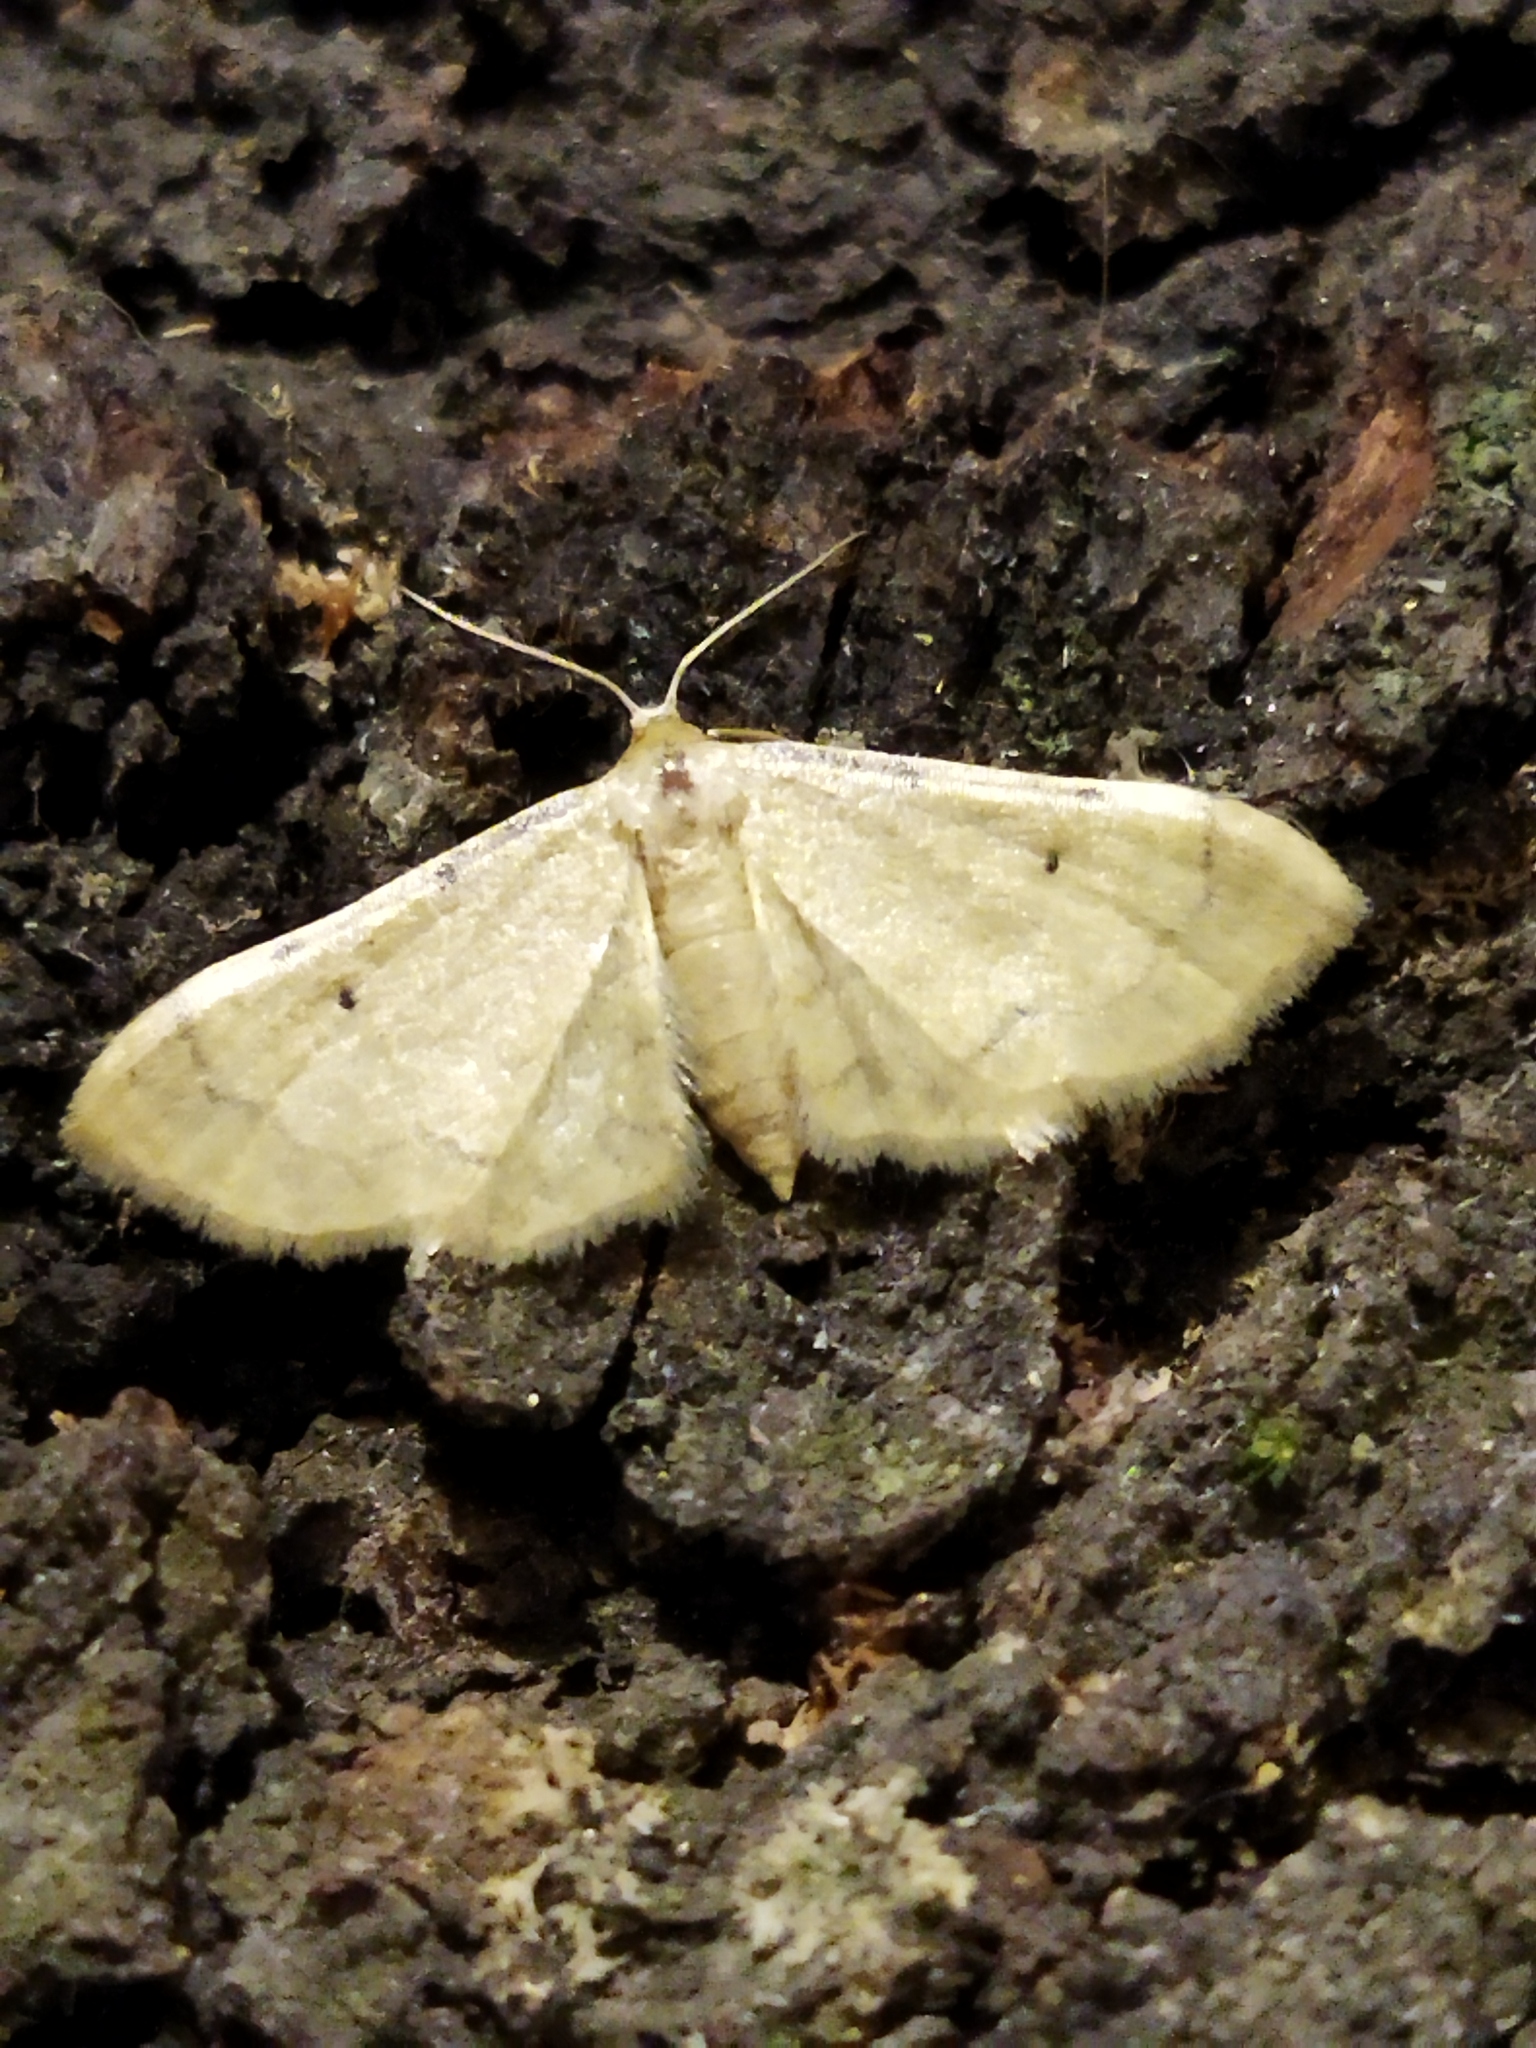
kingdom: Animalia
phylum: Arthropoda
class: Insecta
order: Lepidoptera
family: Geometridae
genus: Idaea
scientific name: Idaea politaria
